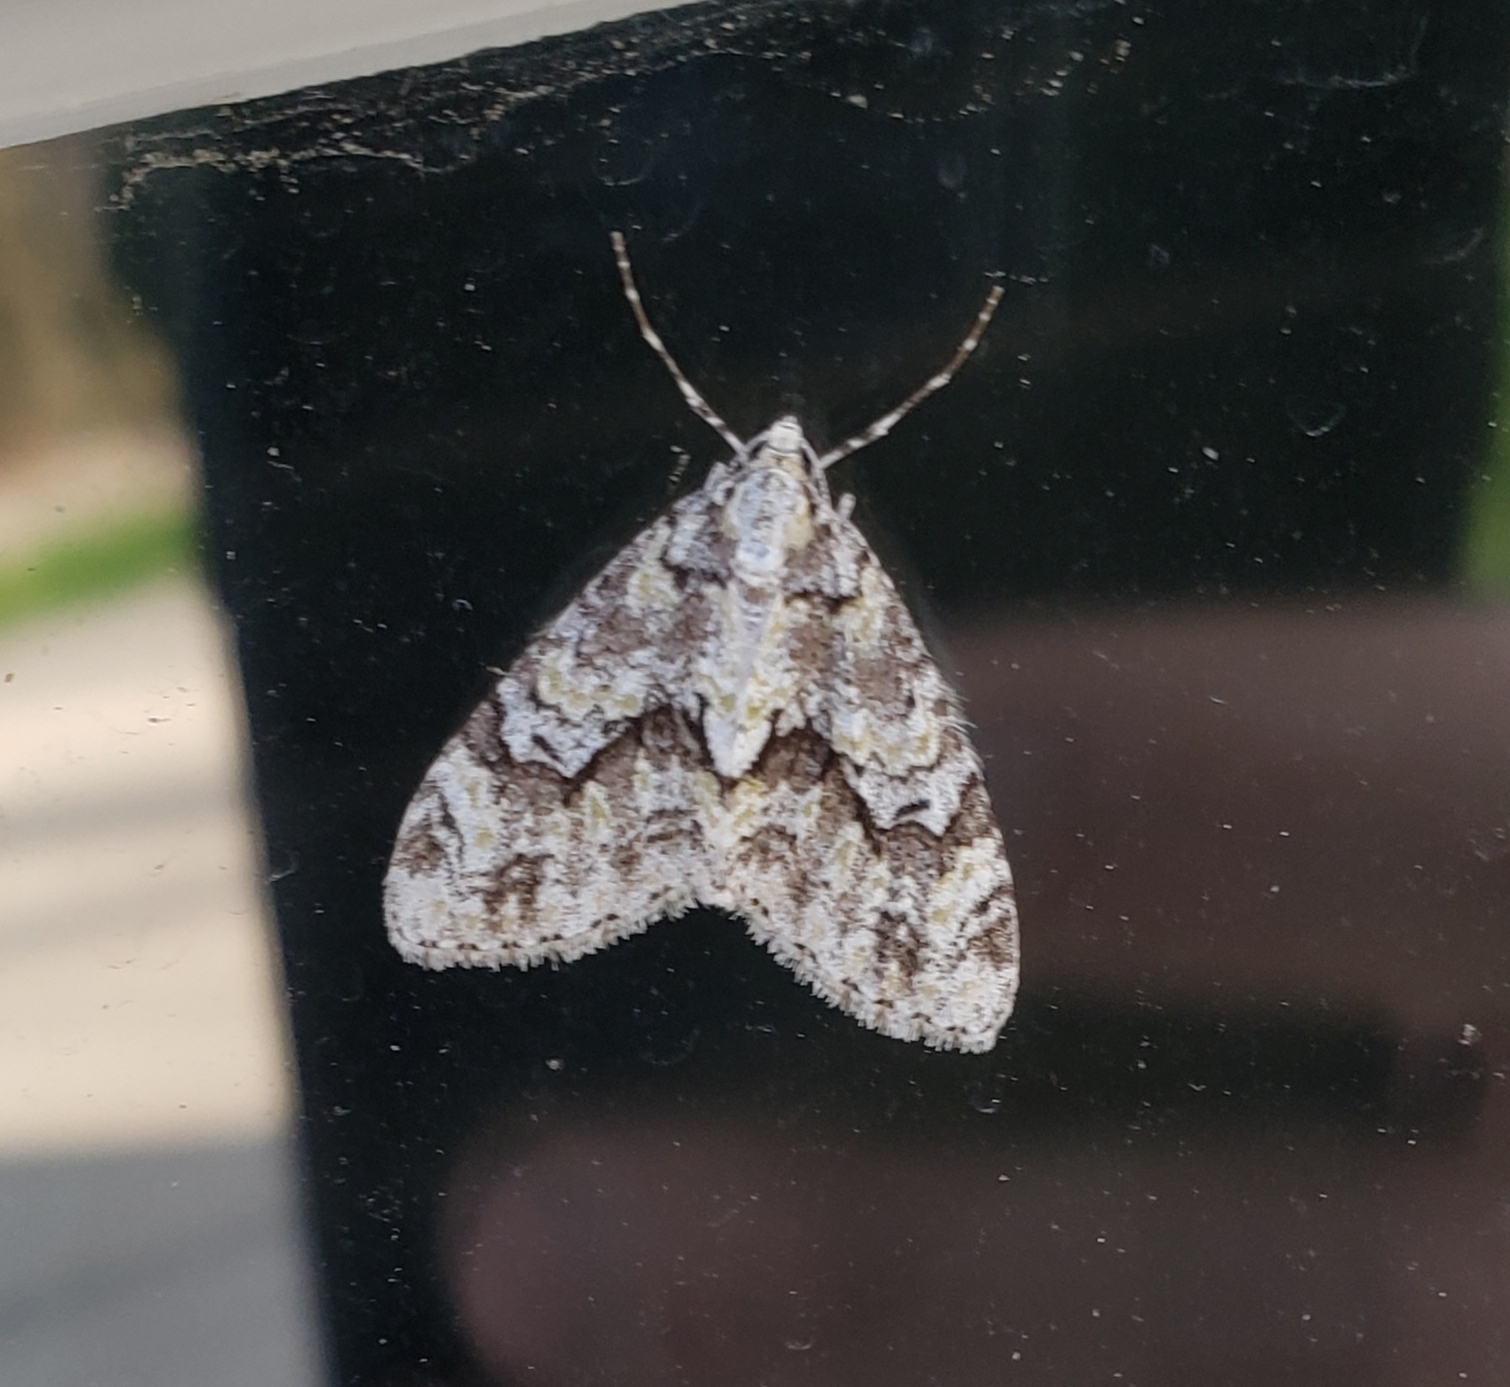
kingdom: Animalia
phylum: Arthropoda
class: Insecta
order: Lepidoptera
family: Geometridae
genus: Cladara
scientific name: Cladara limitaria
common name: Mottled gray carpet
